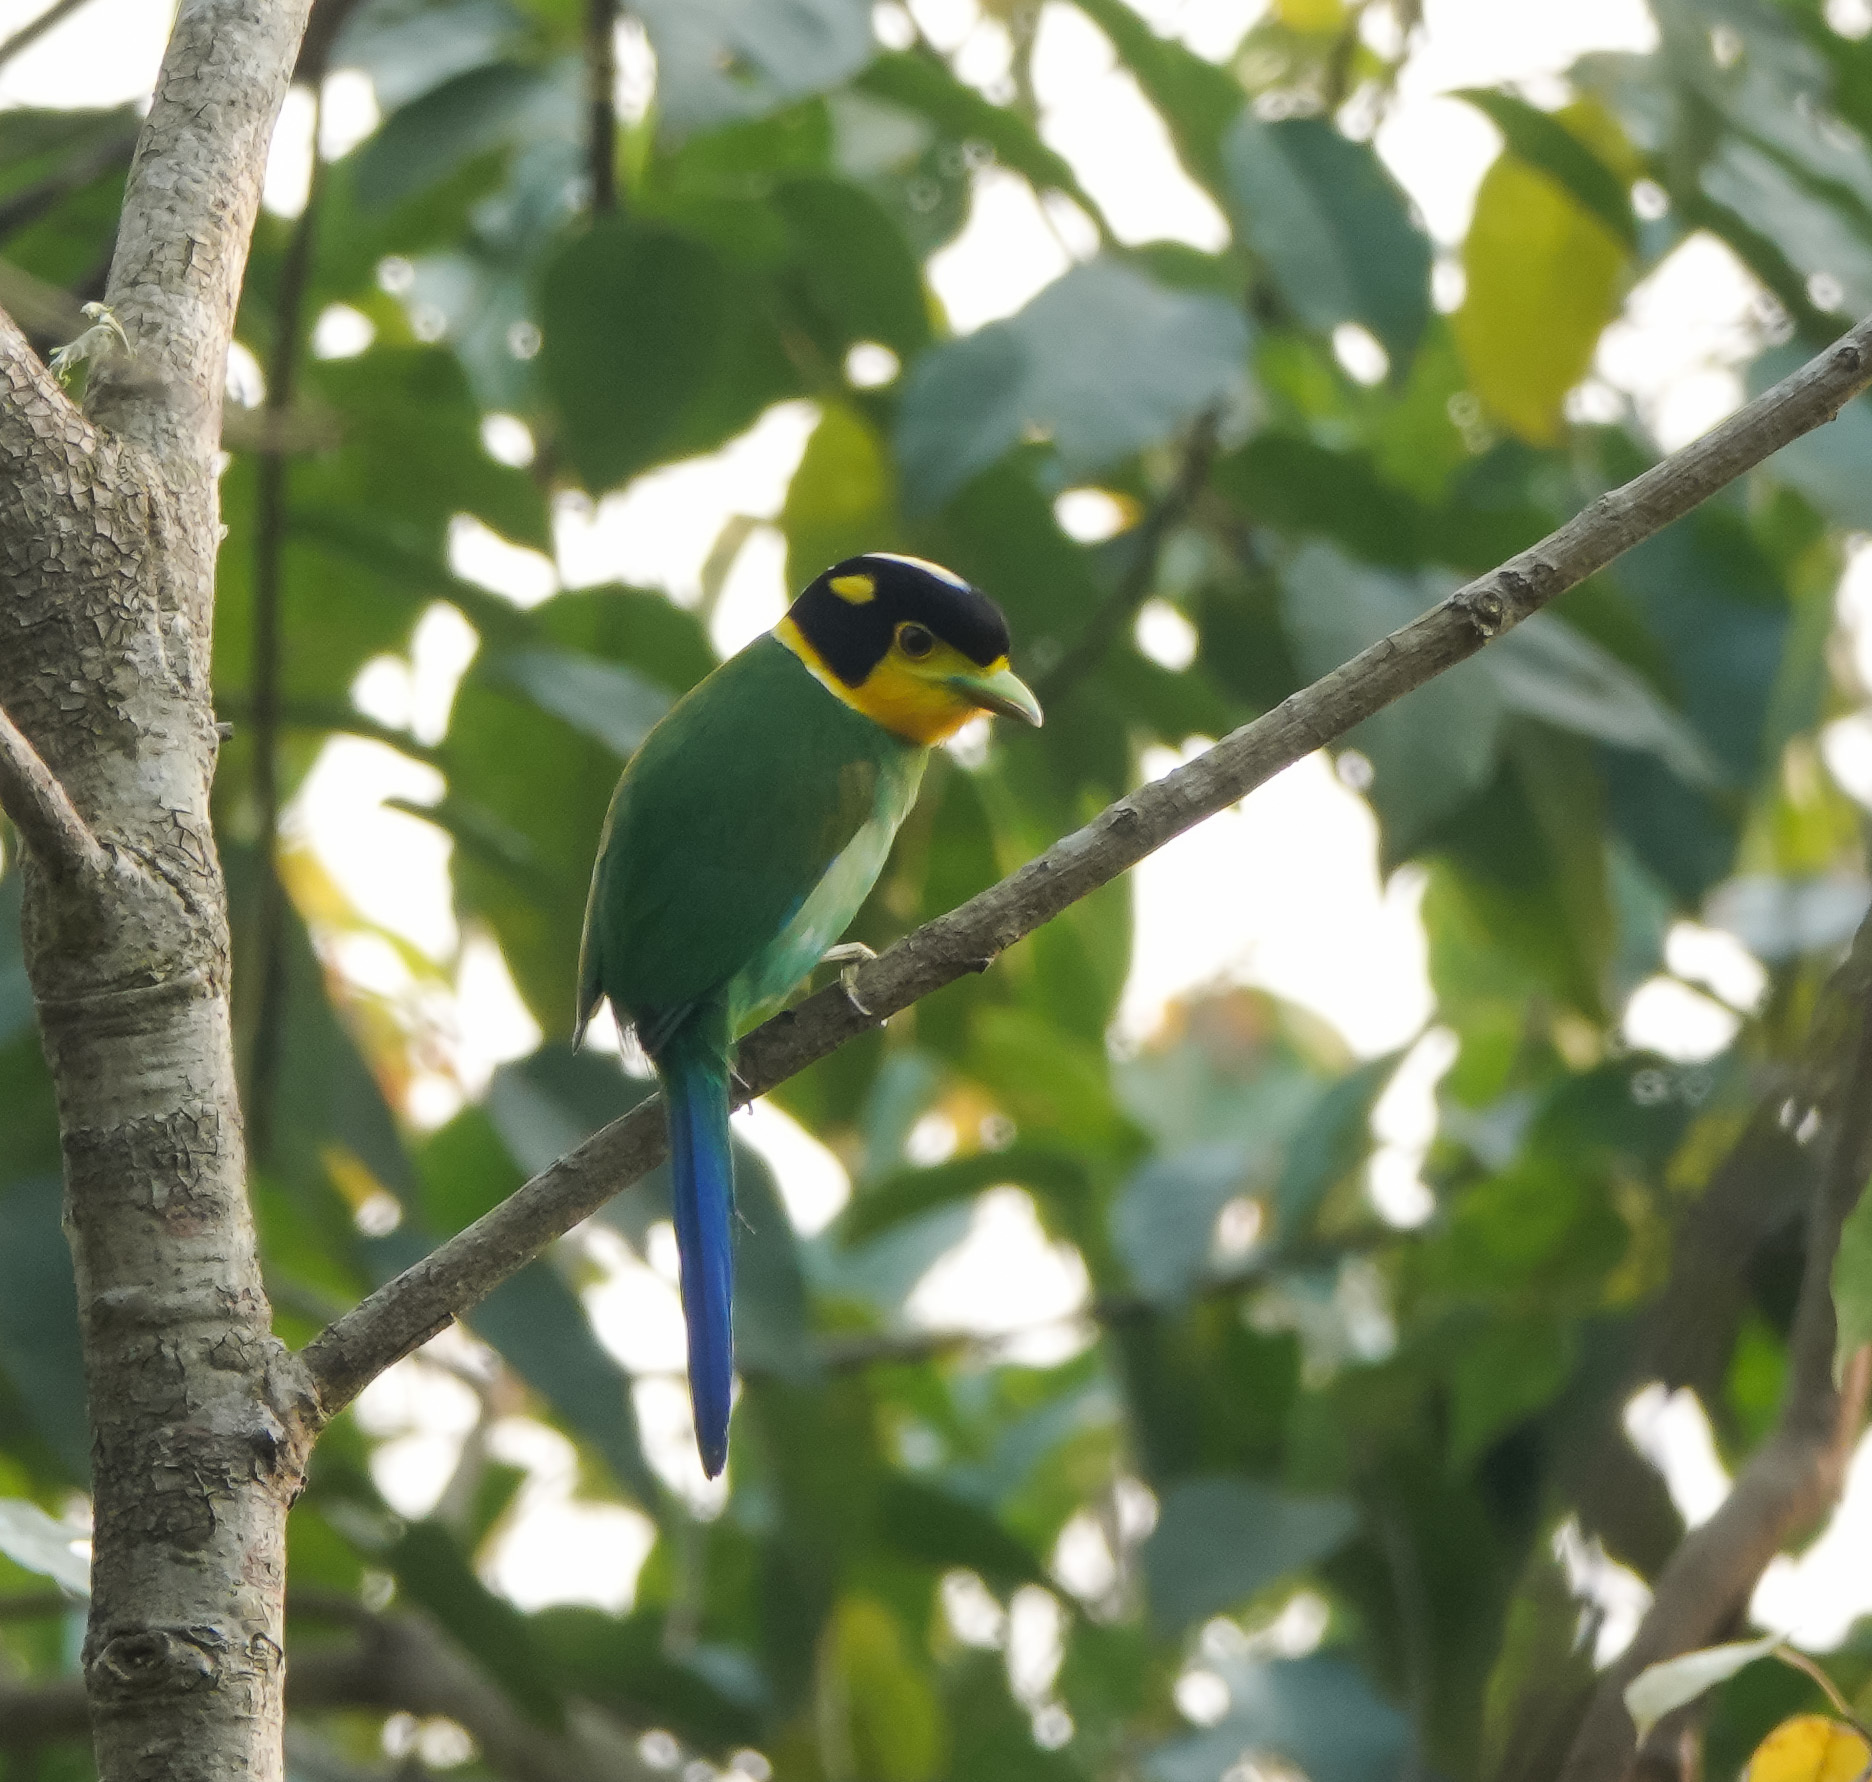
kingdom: Animalia
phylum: Chordata
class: Aves
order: Passeriformes
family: Eurylaimidae
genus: Psarisomus
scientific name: Psarisomus dalhousiae
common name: Long-tailed broadbill
